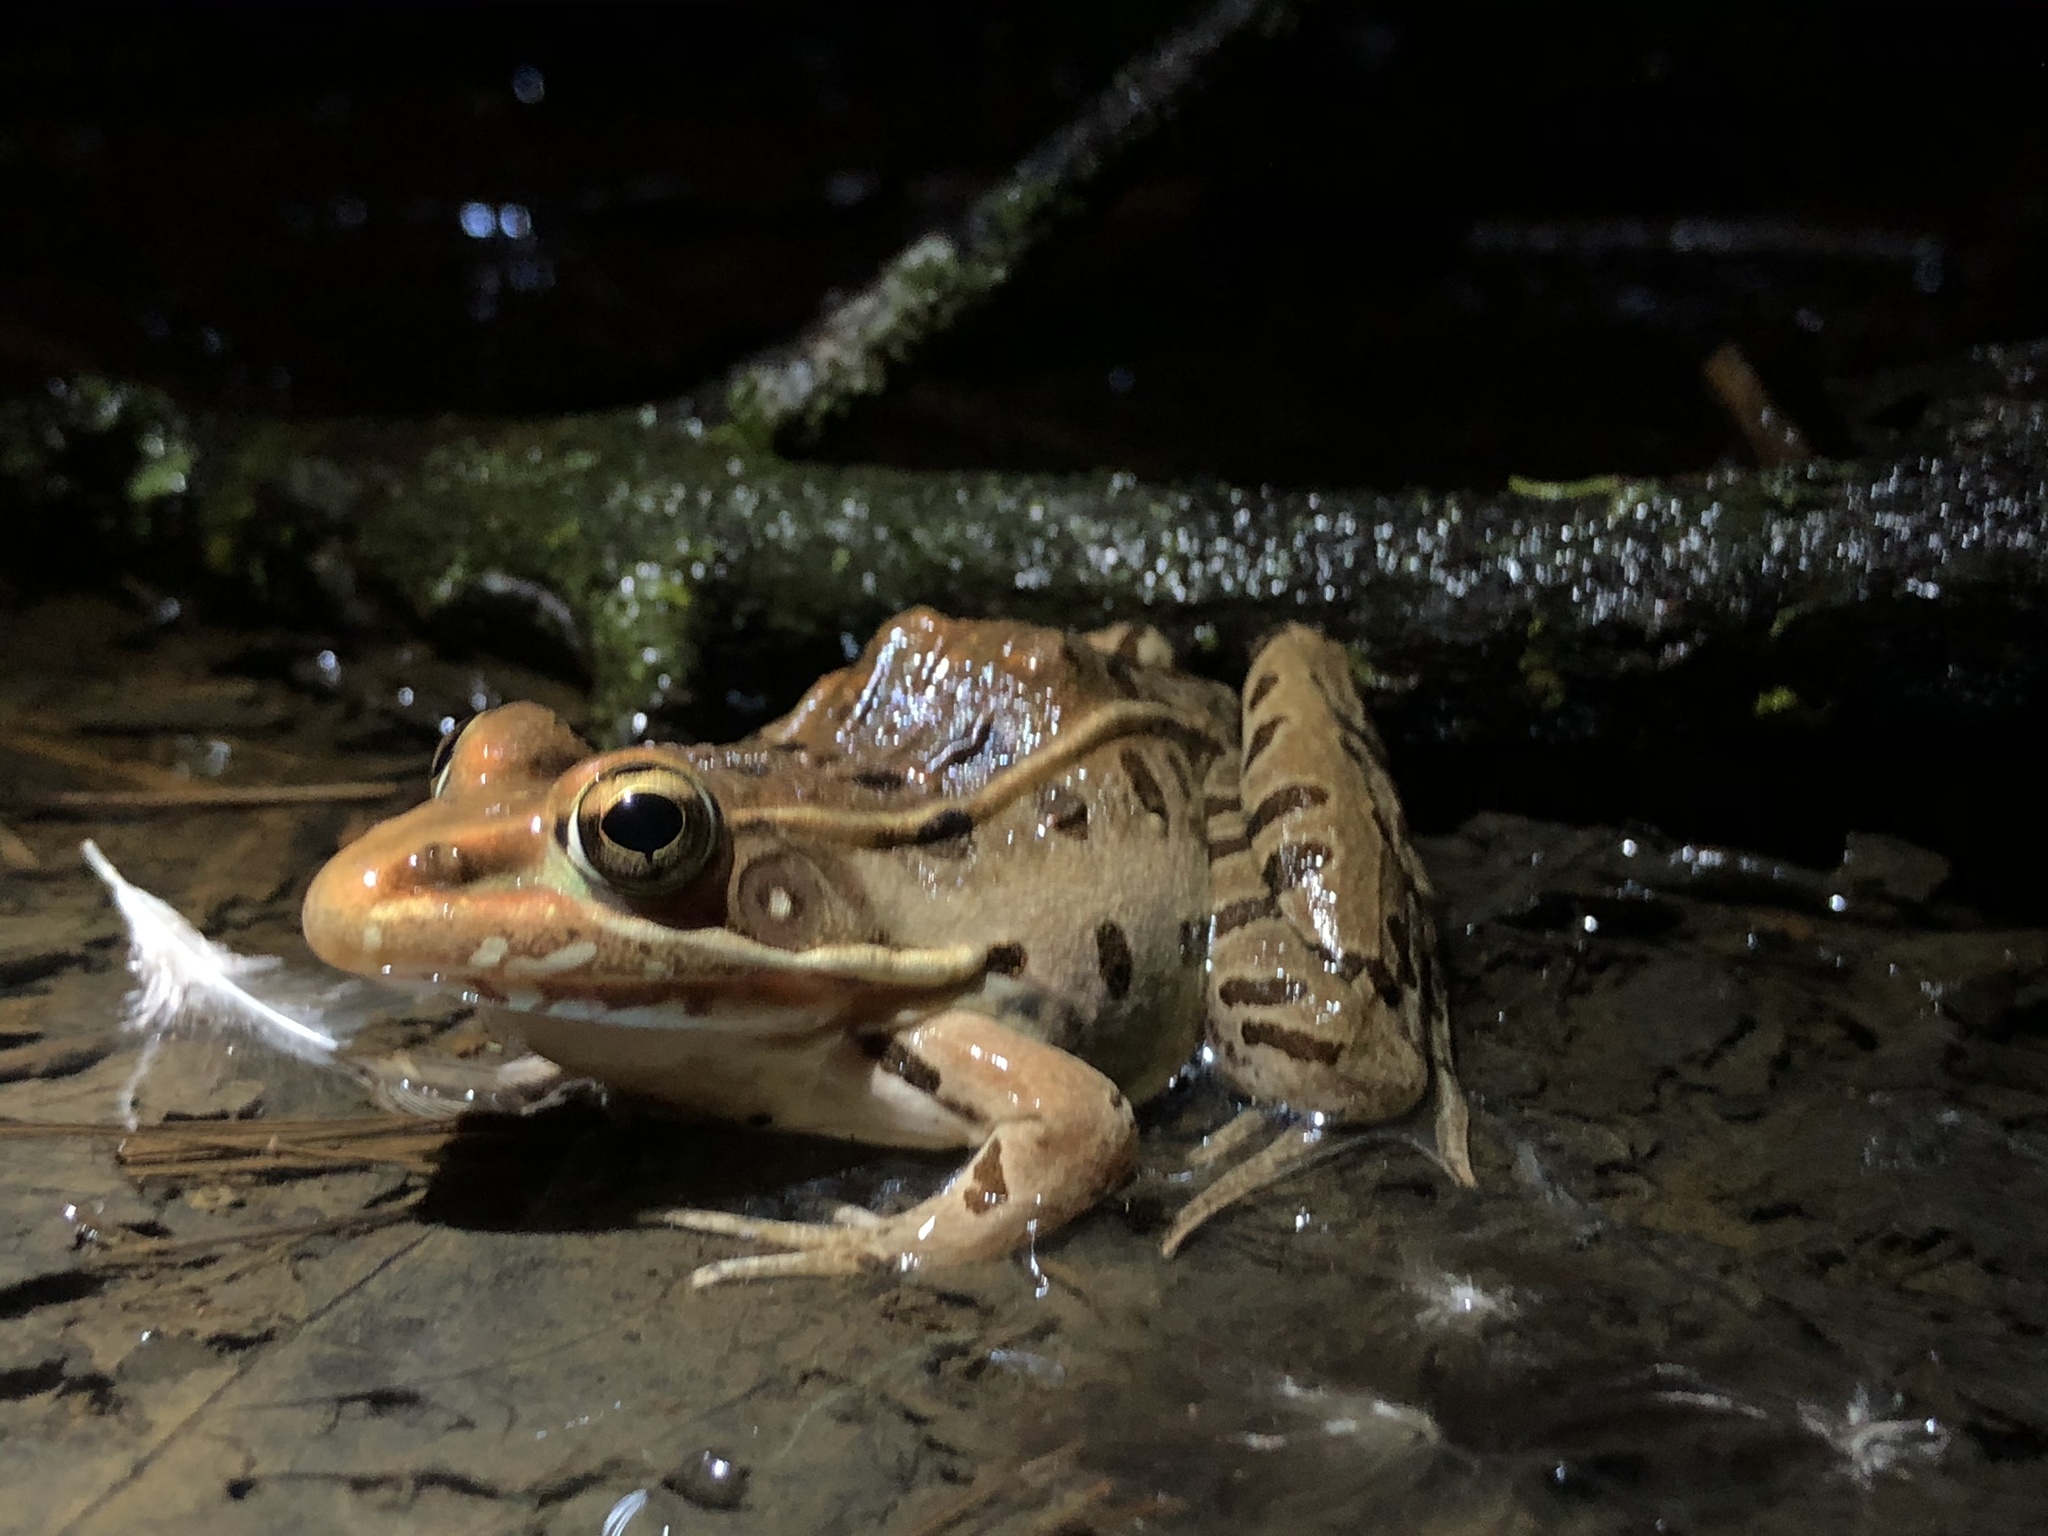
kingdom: Animalia
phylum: Chordata
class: Amphibia
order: Anura
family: Ranidae
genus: Lithobates
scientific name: Lithobates sphenocephalus
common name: Southern leopard frog
